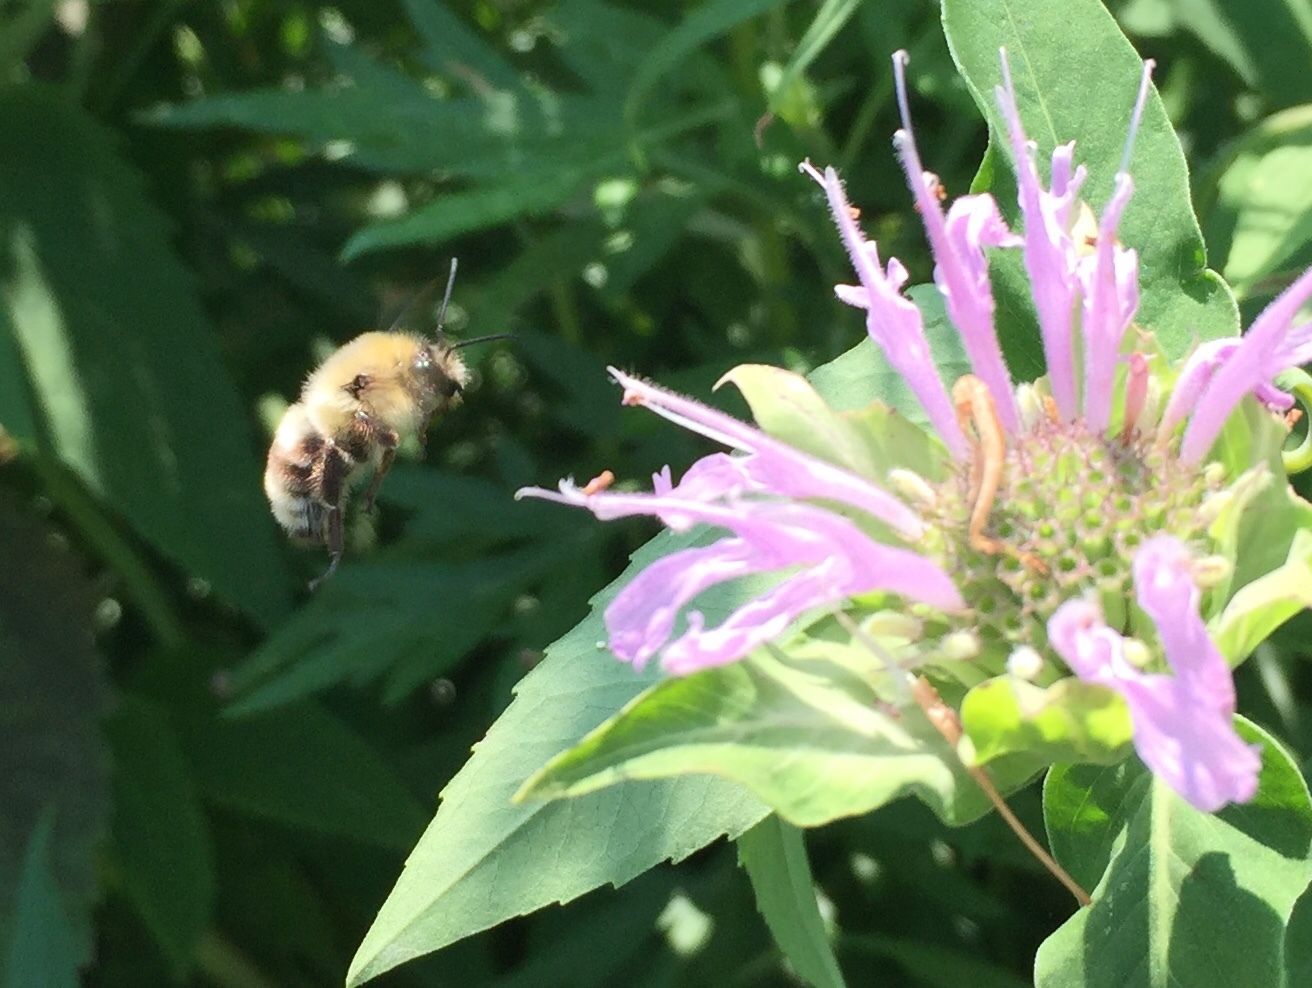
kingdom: Animalia
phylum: Arthropoda
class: Insecta
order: Hymenoptera
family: Apidae
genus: Bombus
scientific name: Bombus bimaculatus
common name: Two-spotted bumble bee
